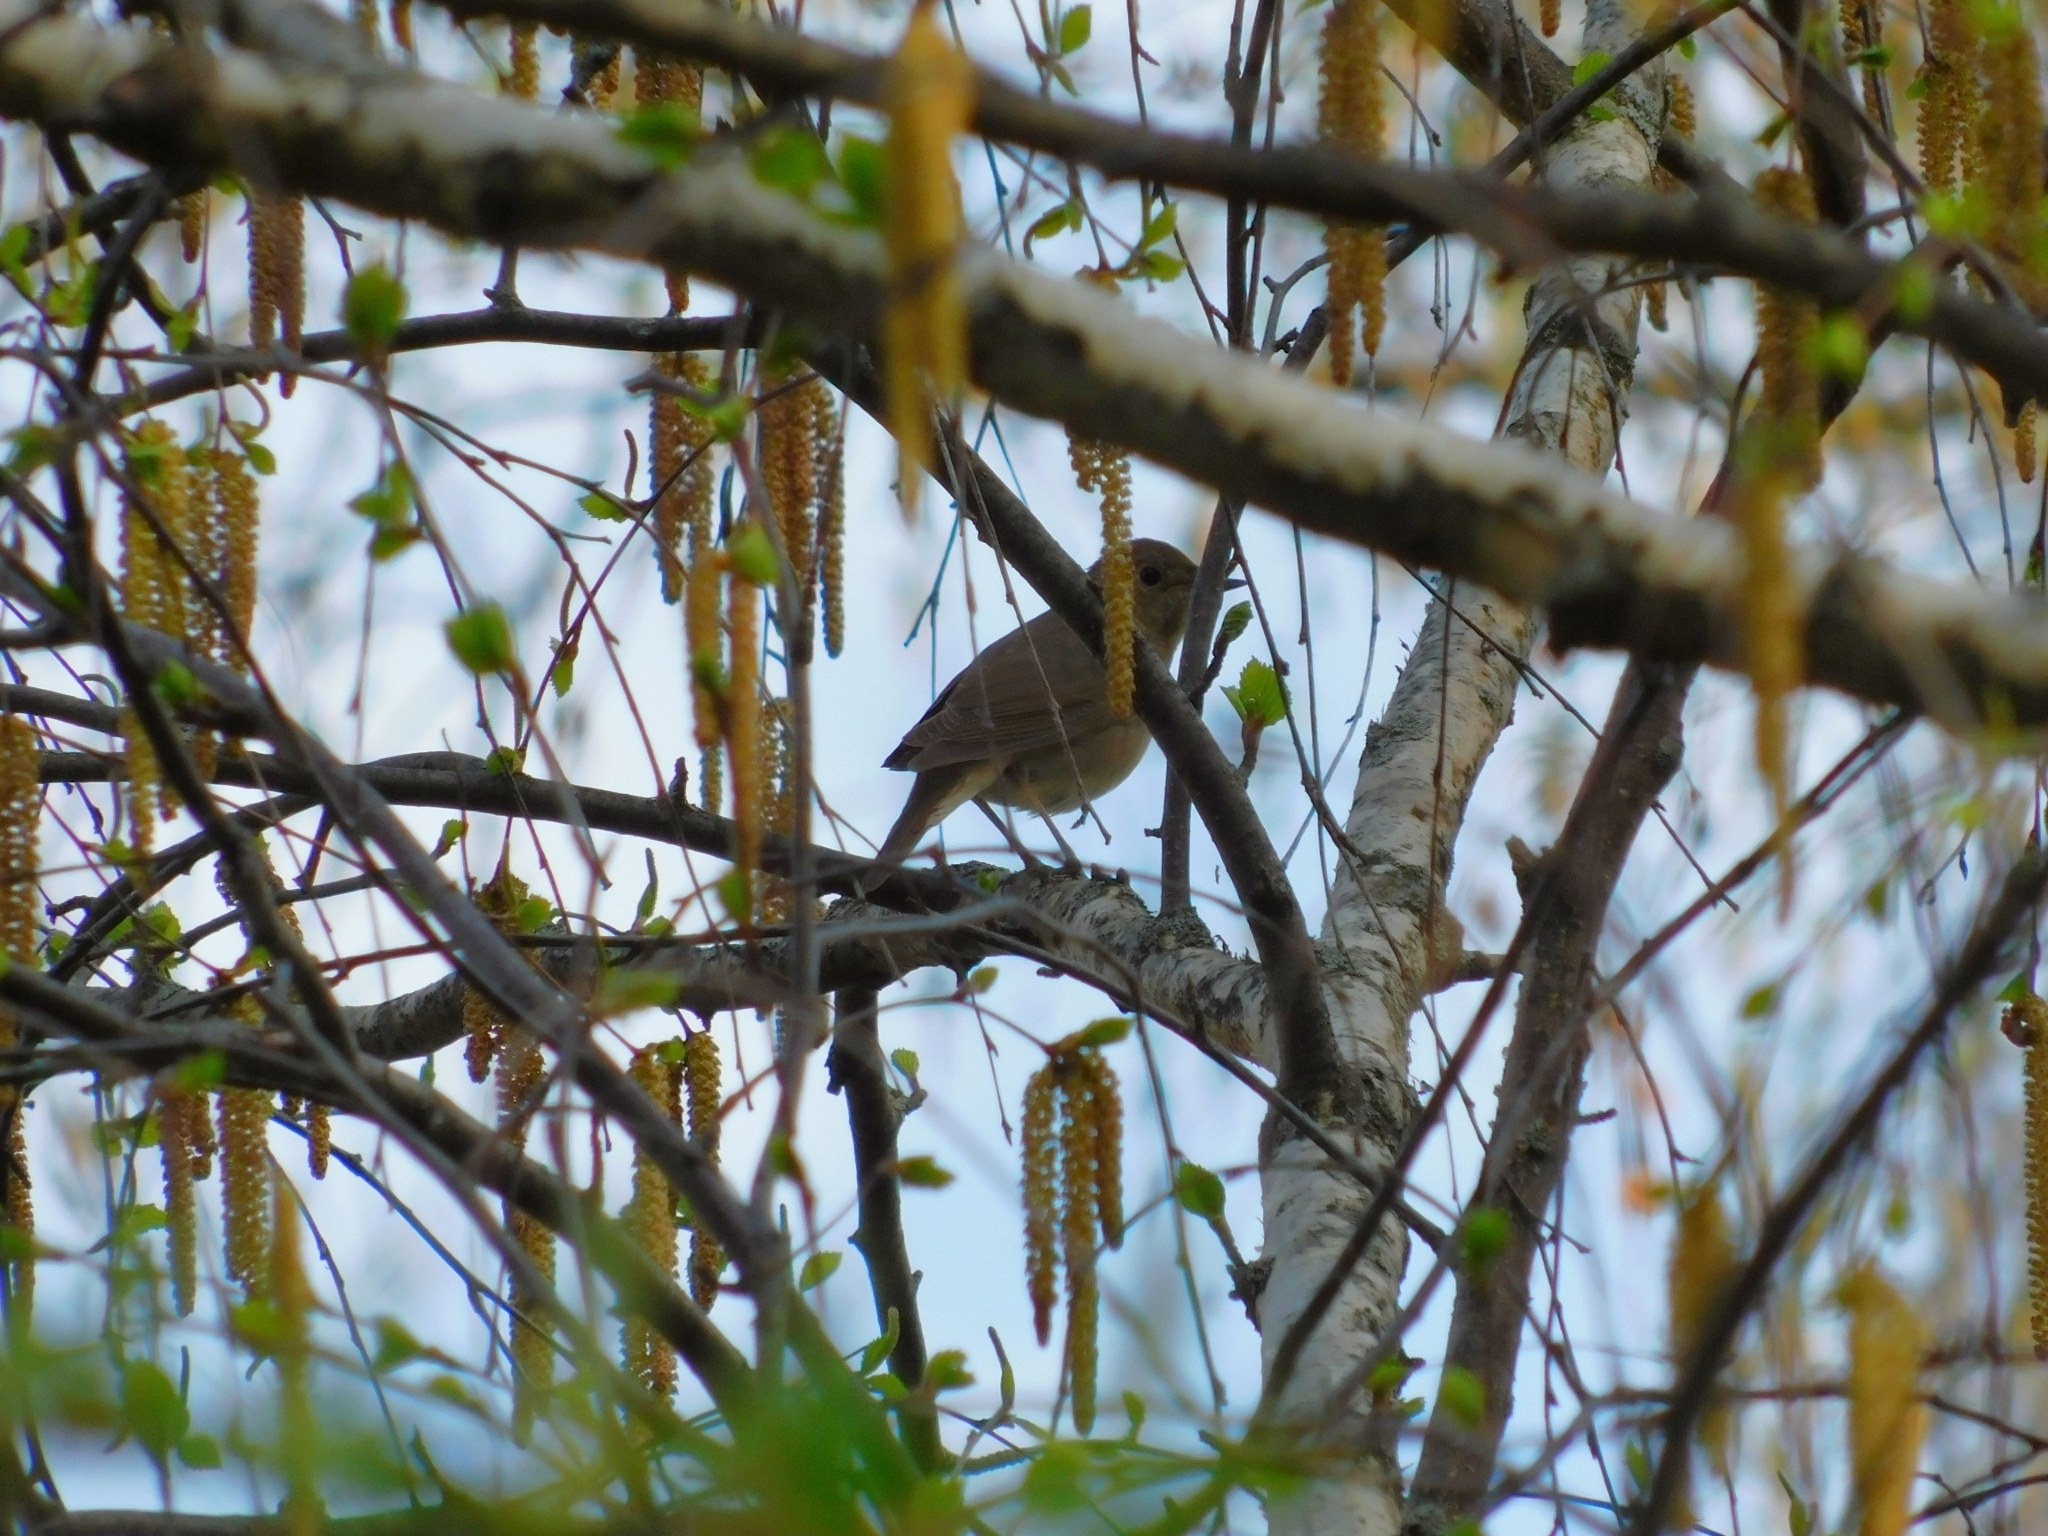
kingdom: Animalia
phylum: Chordata
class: Aves
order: Passeriformes
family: Muscicapidae
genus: Luscinia
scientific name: Luscinia luscinia
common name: Thrush nightingale
